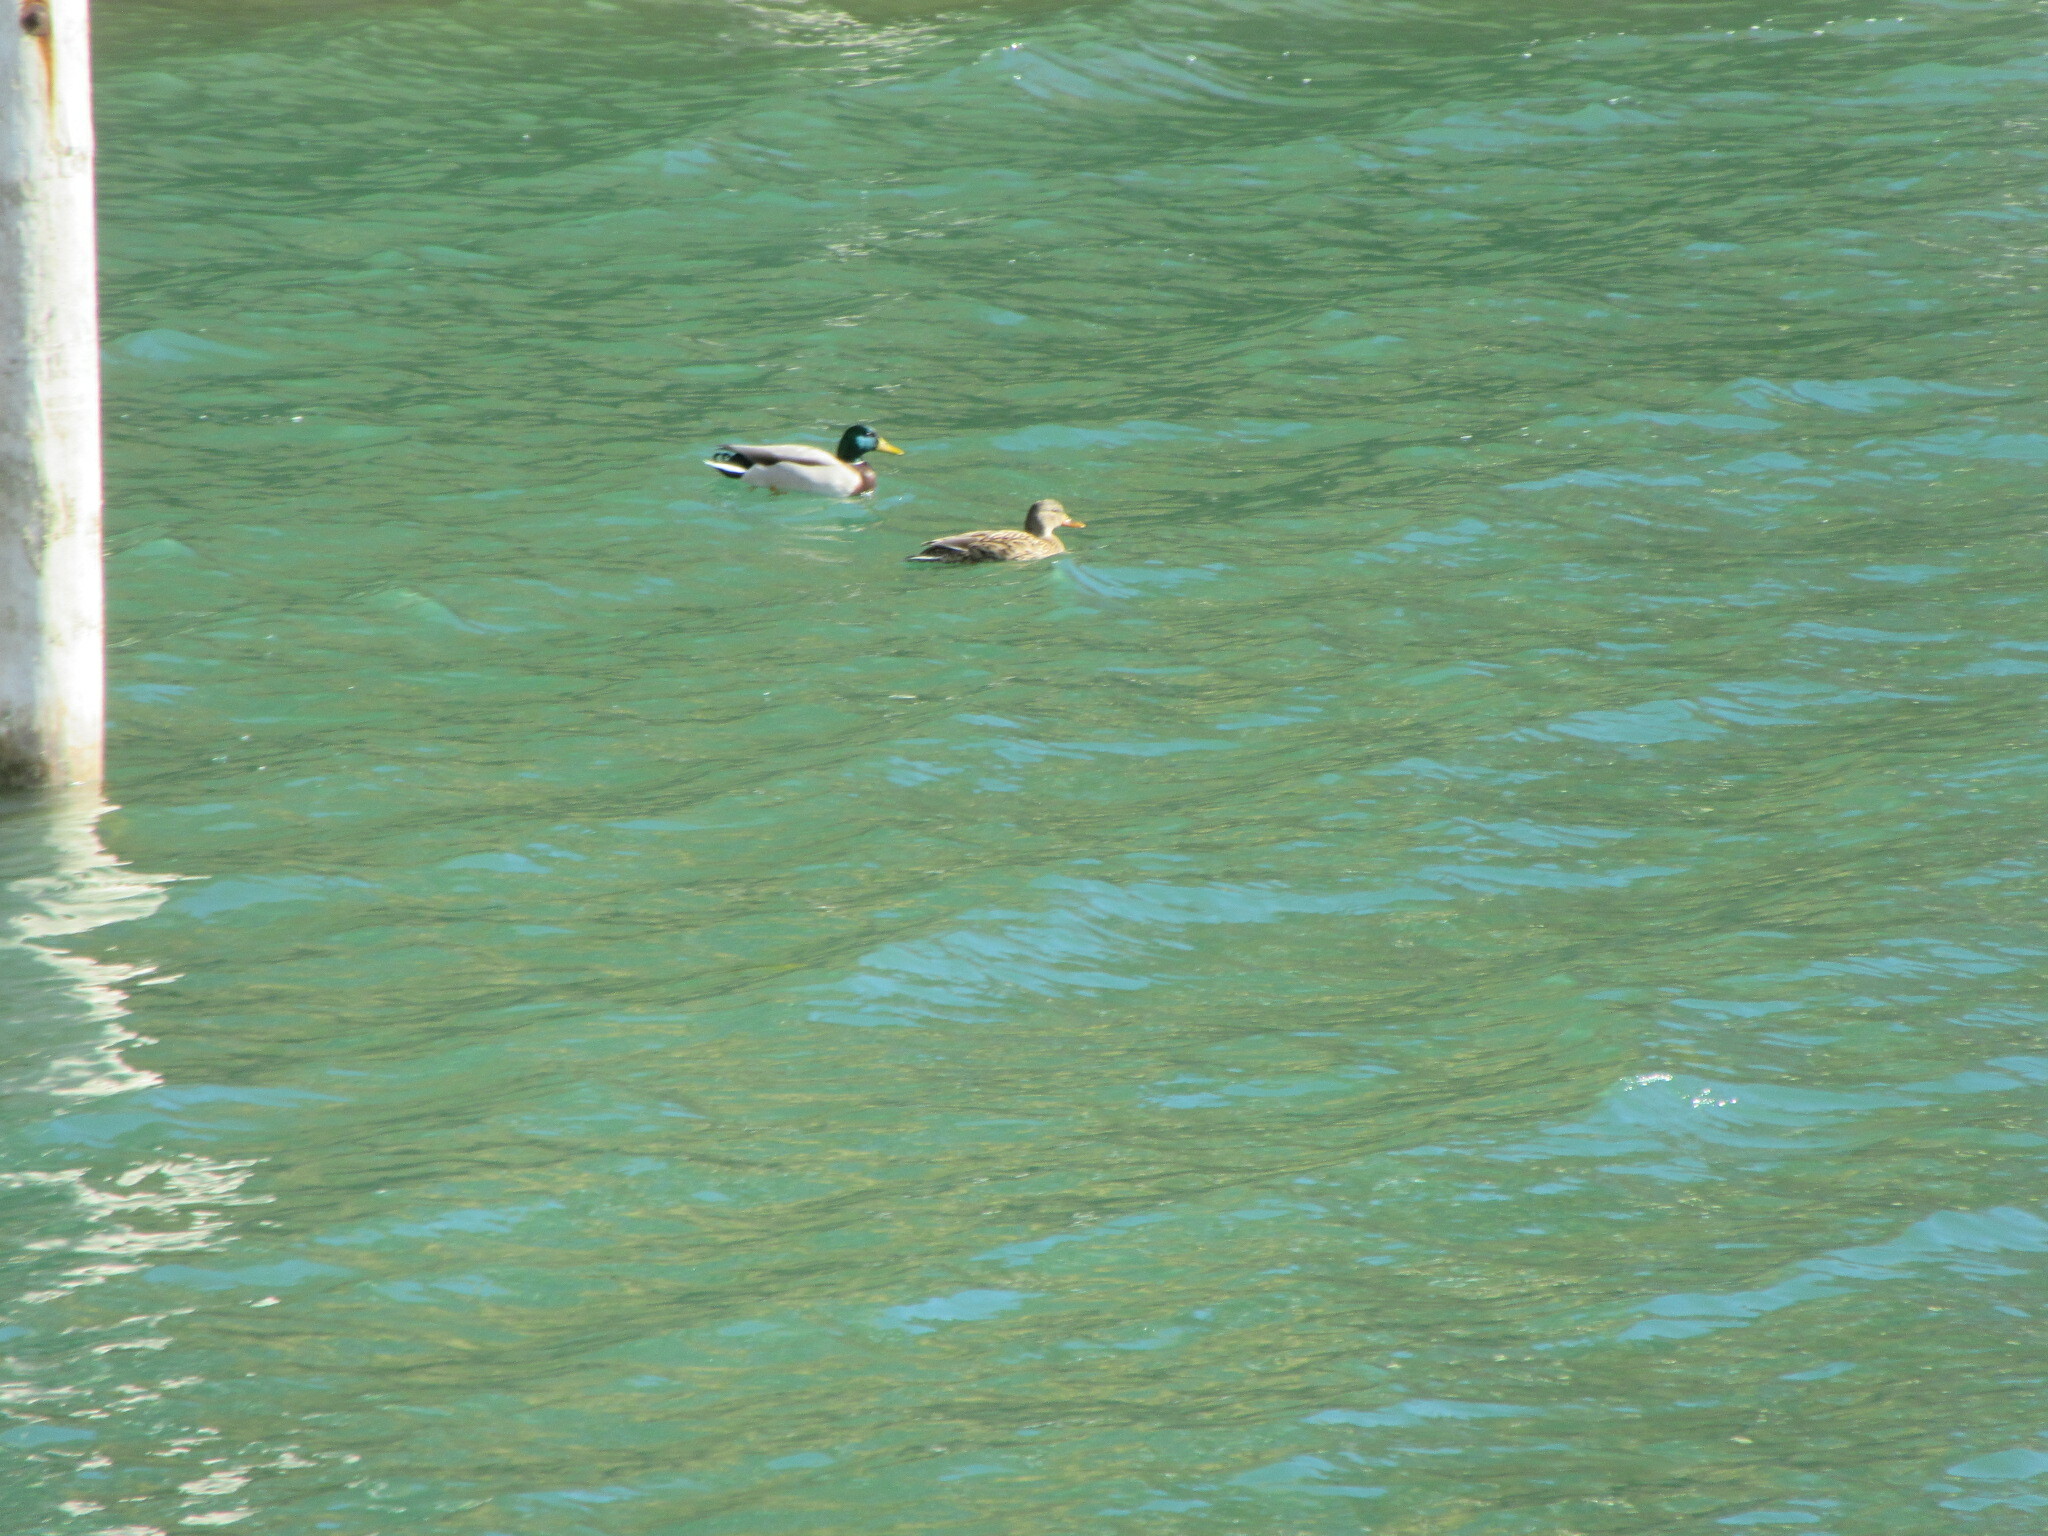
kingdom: Animalia
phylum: Chordata
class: Aves
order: Anseriformes
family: Anatidae
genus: Anas
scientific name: Anas platyrhynchos
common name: Mallard
